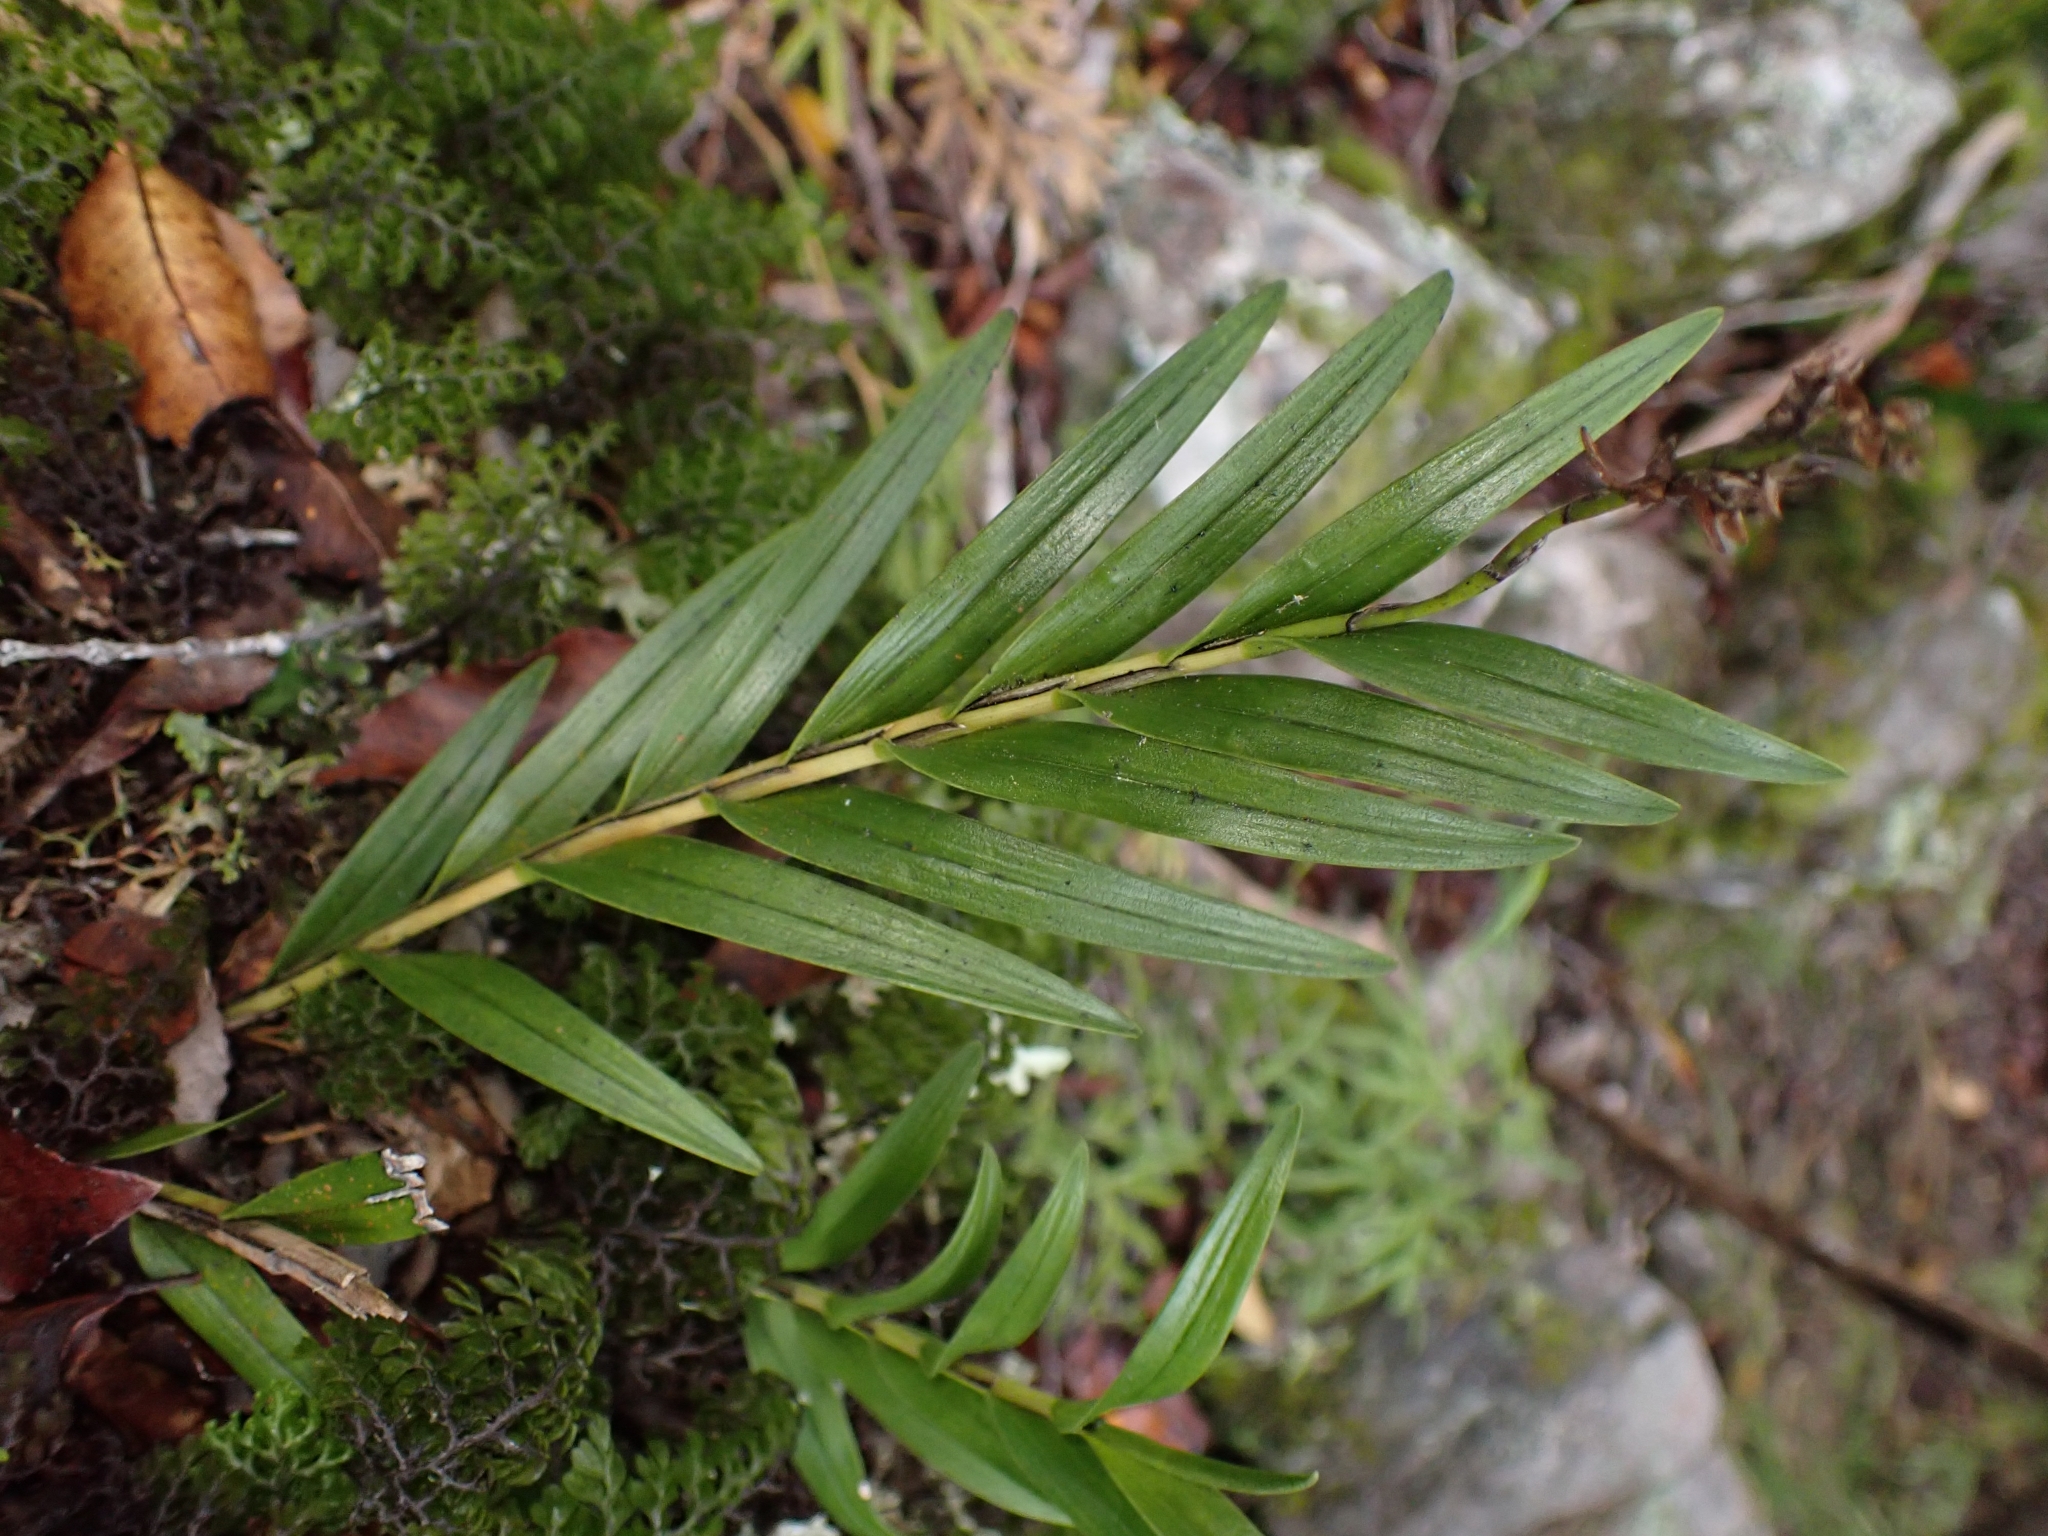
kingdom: Plantae
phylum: Tracheophyta
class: Liliopsida
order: Asparagales
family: Orchidaceae
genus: Earina
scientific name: Earina autumnalis
